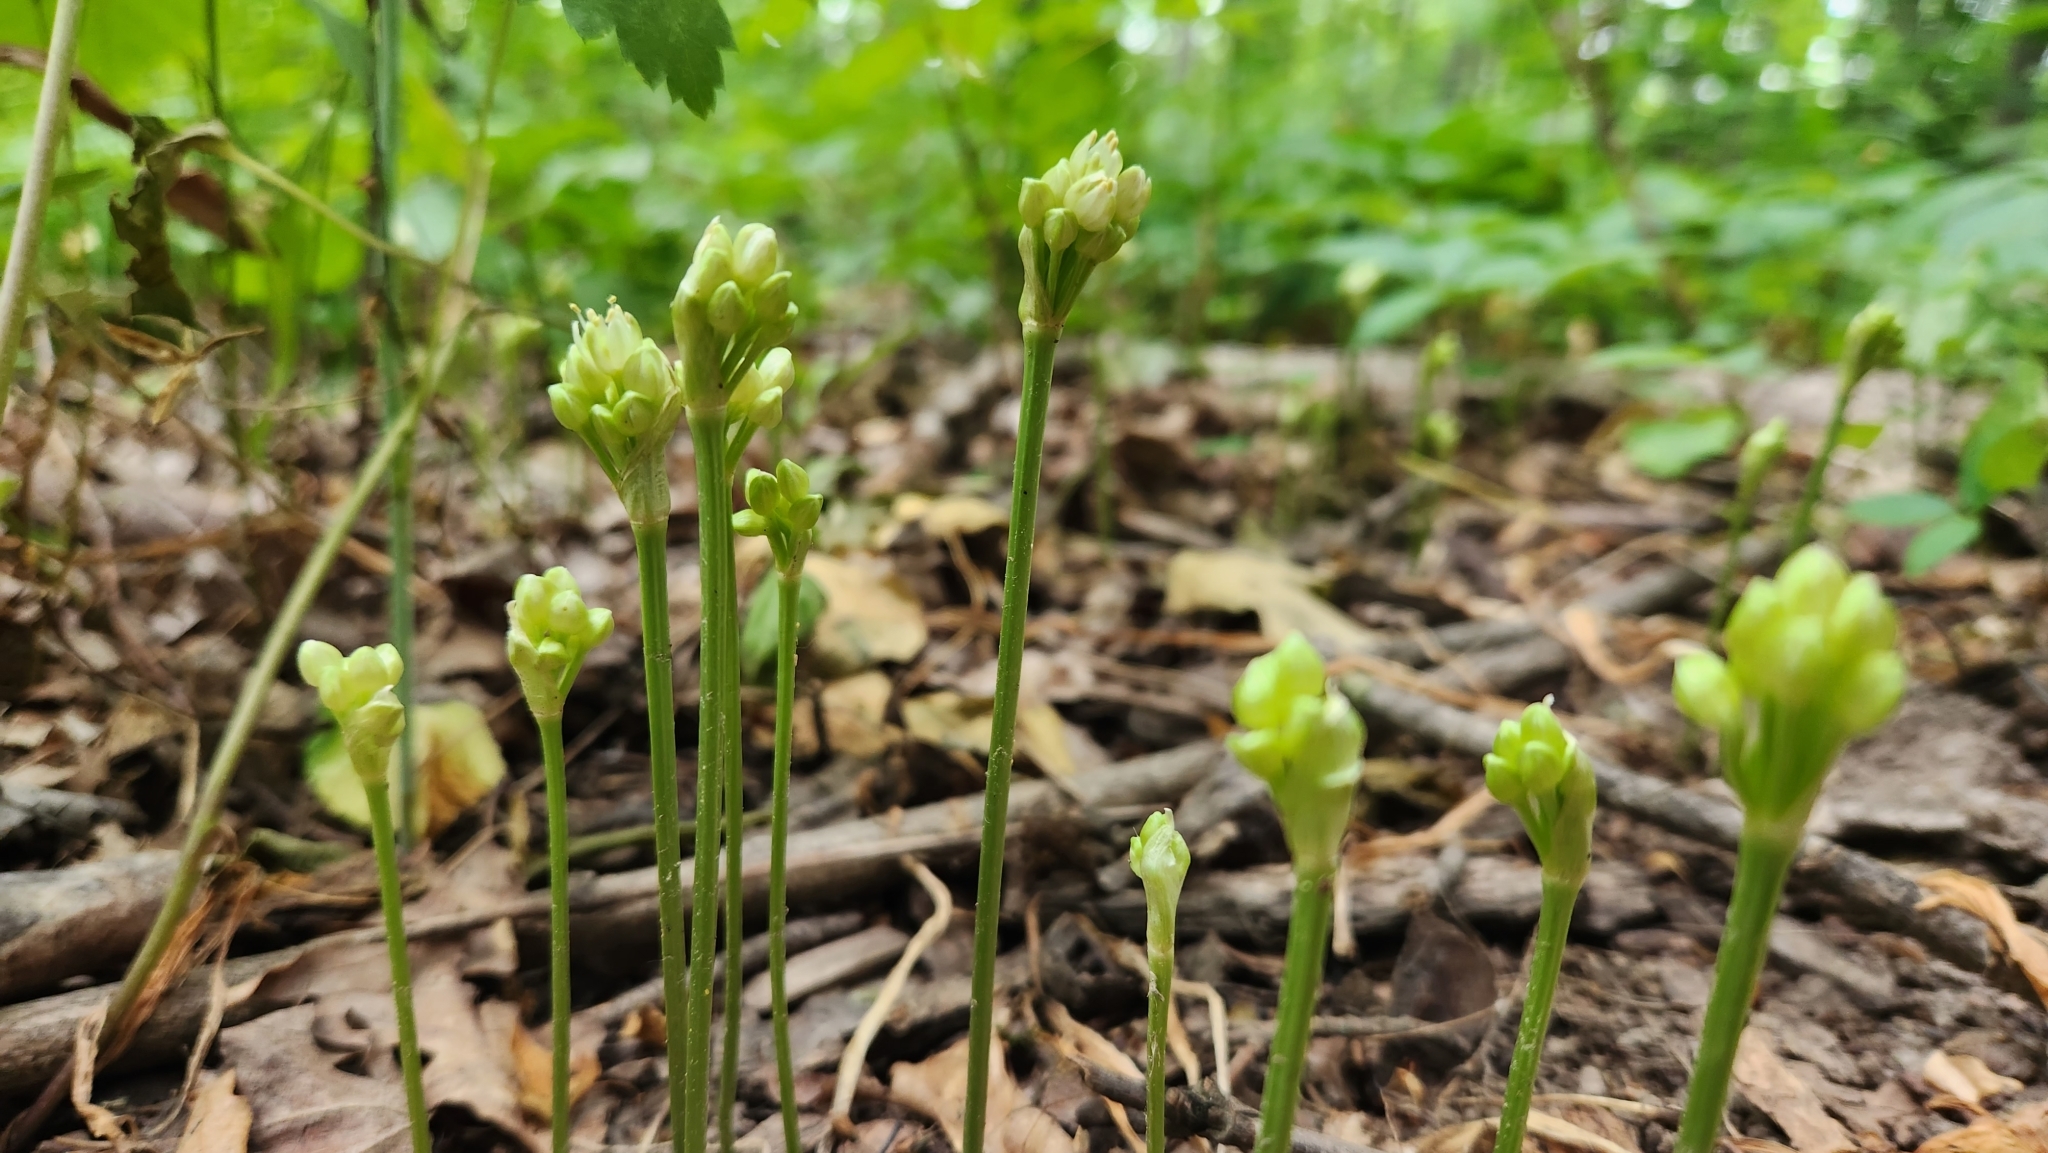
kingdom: Plantae
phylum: Tracheophyta
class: Liliopsida
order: Asparagales
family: Amaryllidaceae
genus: Allium
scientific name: Allium tricoccum
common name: Ramp
